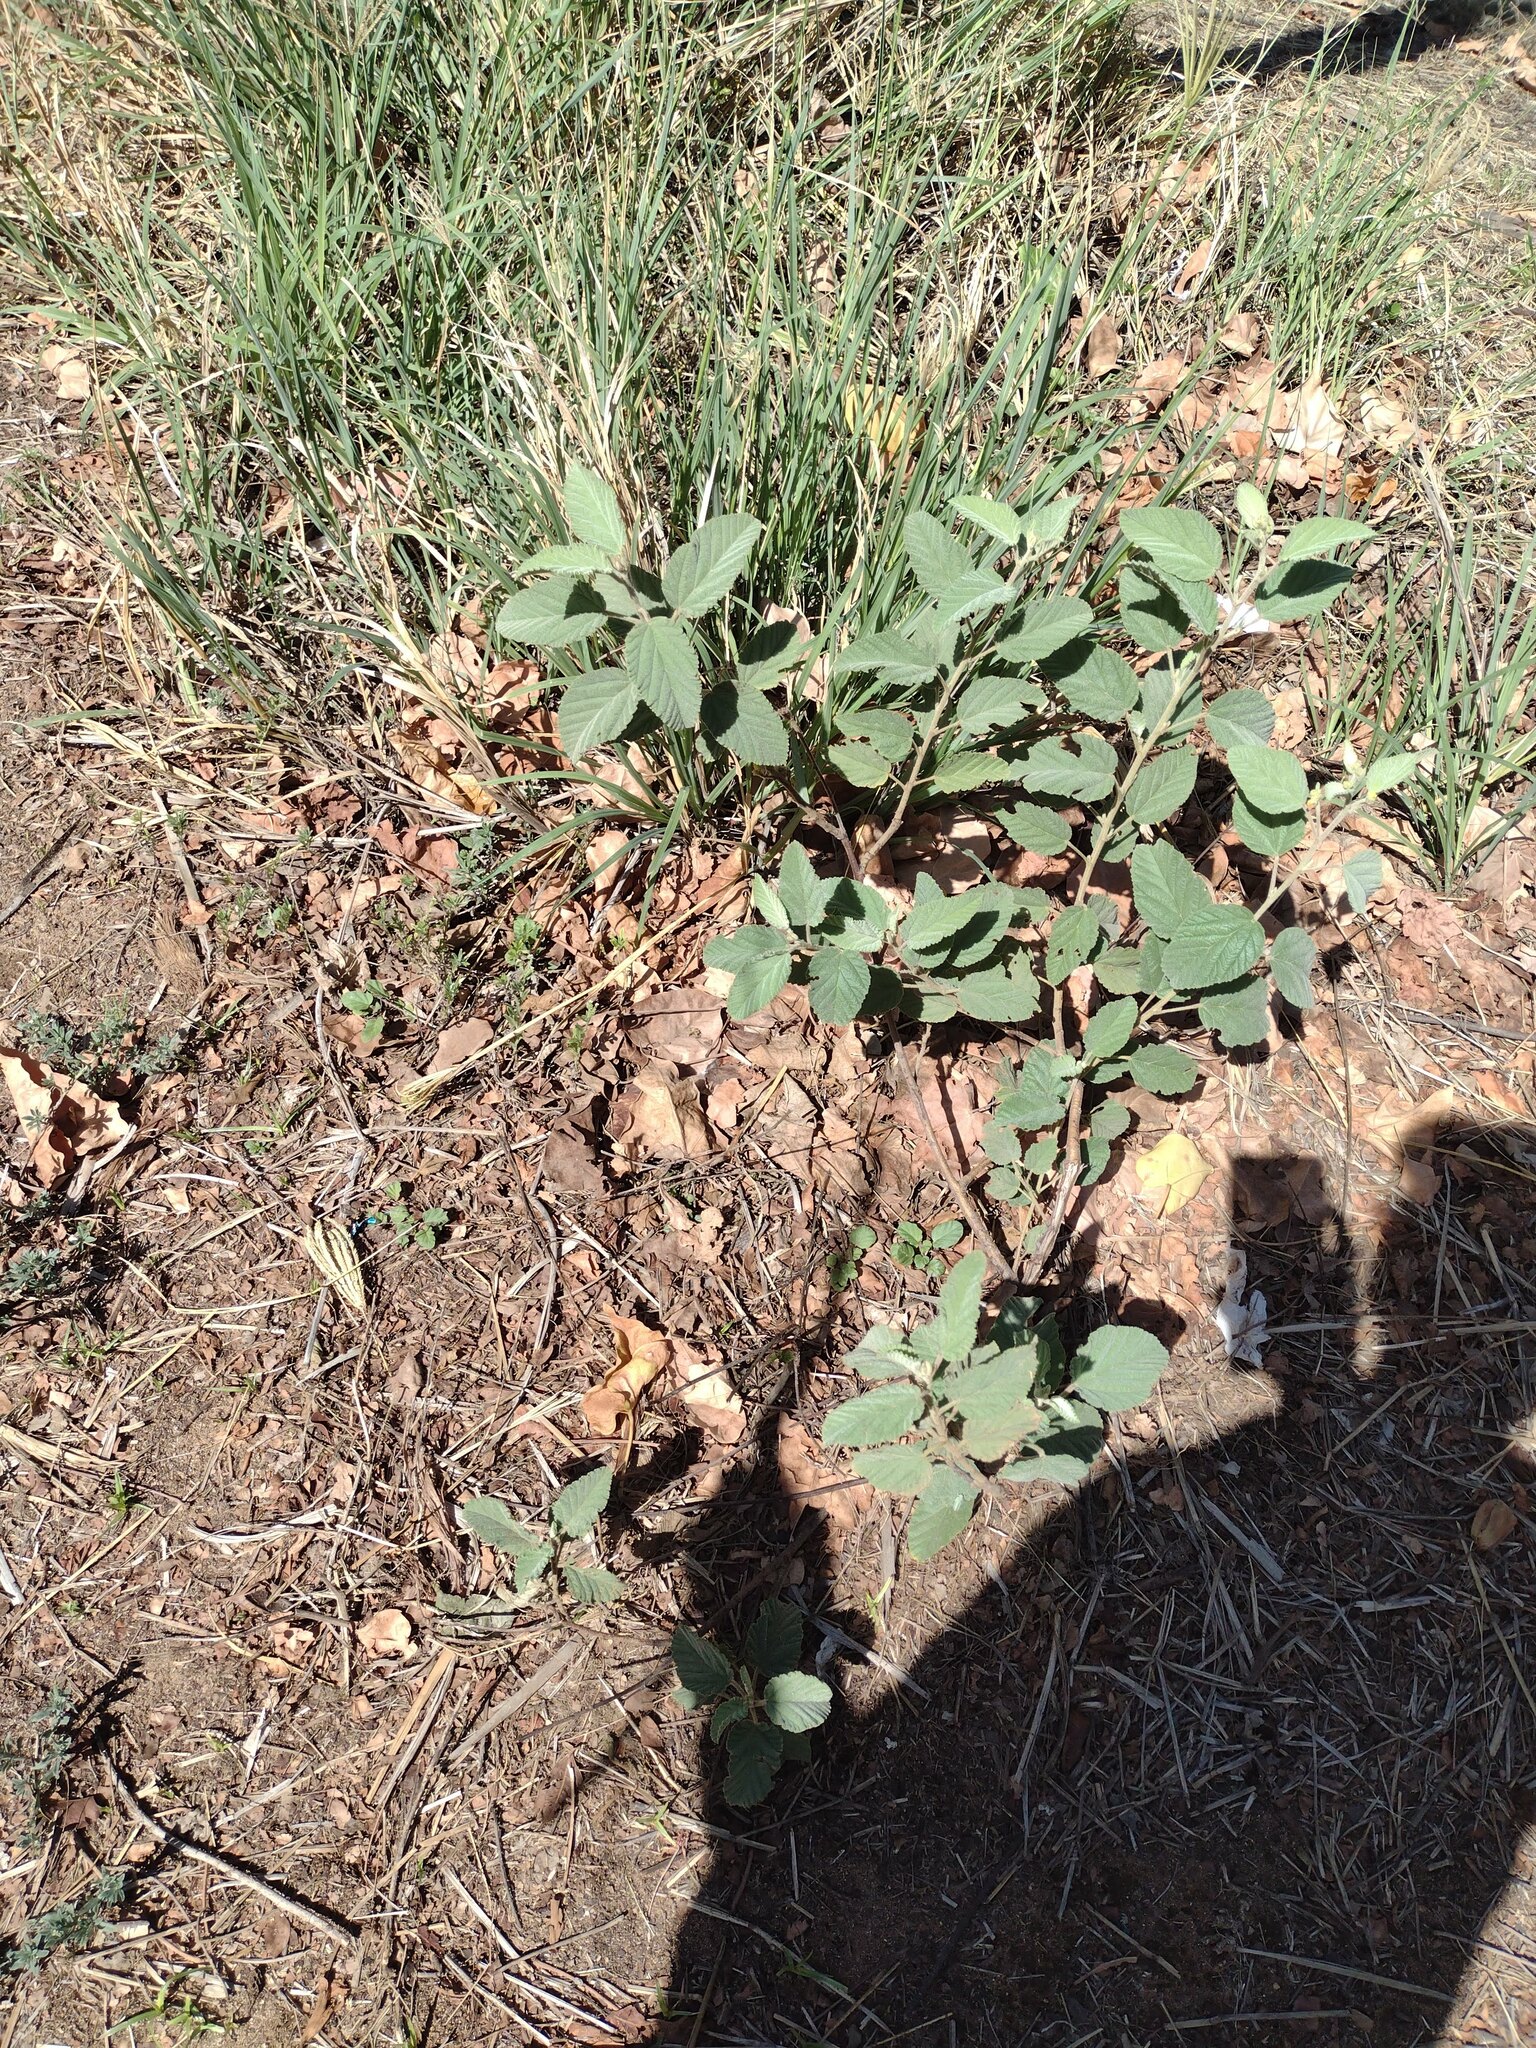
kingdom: Plantae
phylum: Tracheophyta
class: Magnoliopsida
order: Malvales
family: Malvaceae
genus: Waltheria
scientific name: Waltheria indica
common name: Leather-coat
